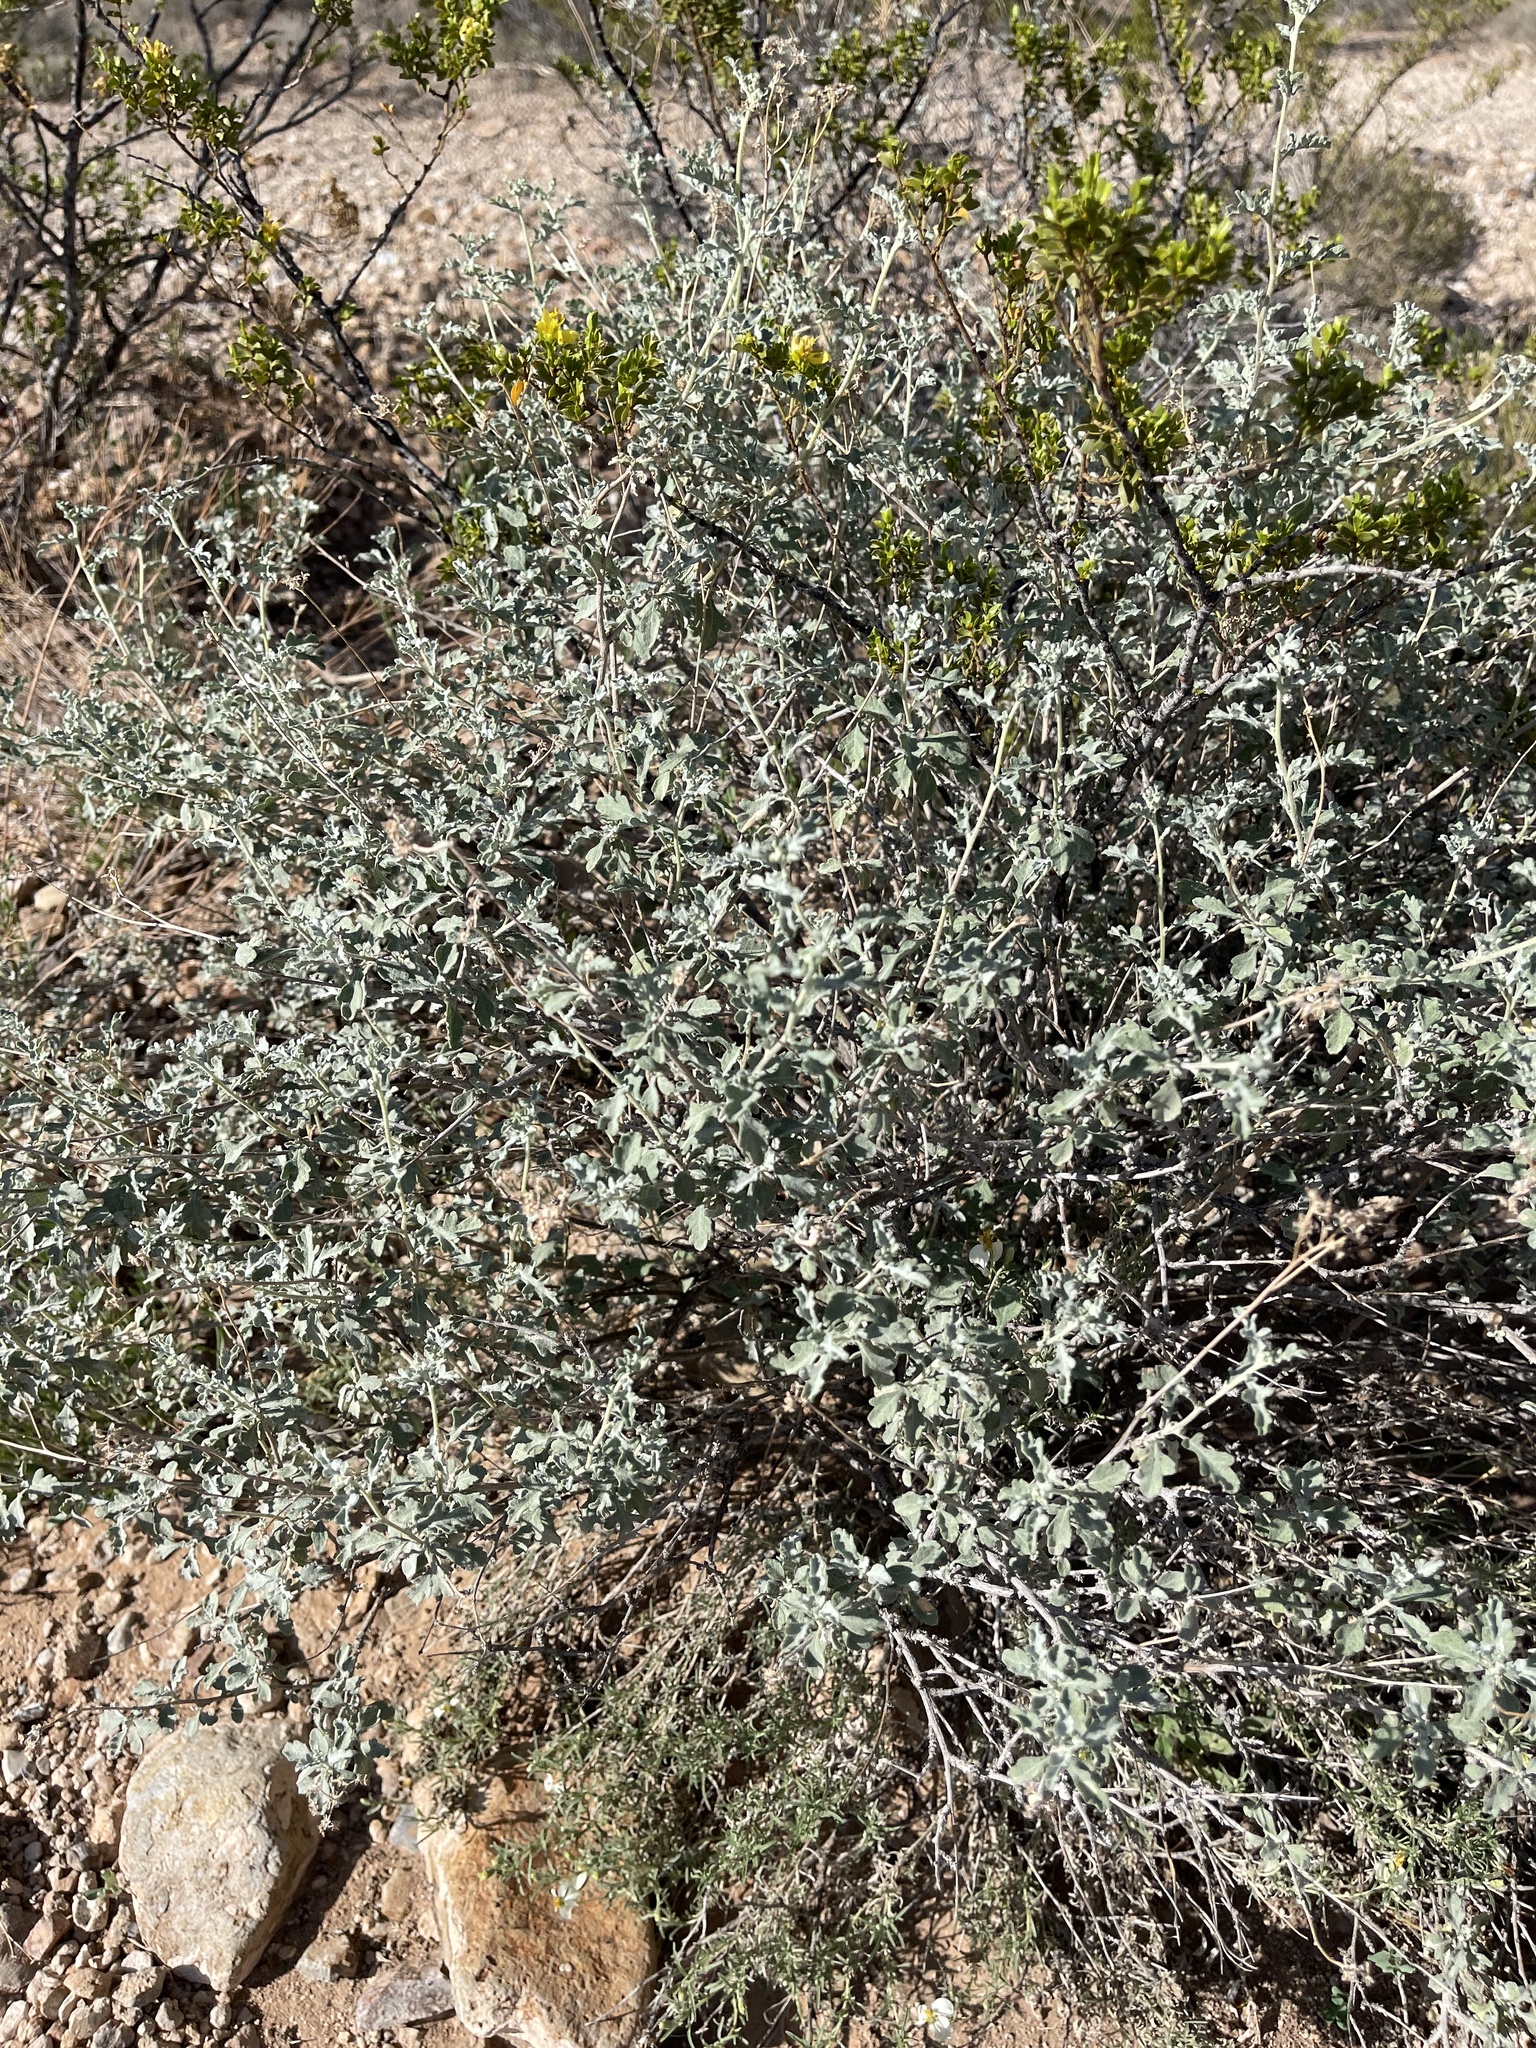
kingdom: Plantae
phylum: Tracheophyta
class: Magnoliopsida
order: Asterales
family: Asteraceae
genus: Parthenium
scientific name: Parthenium incanum
